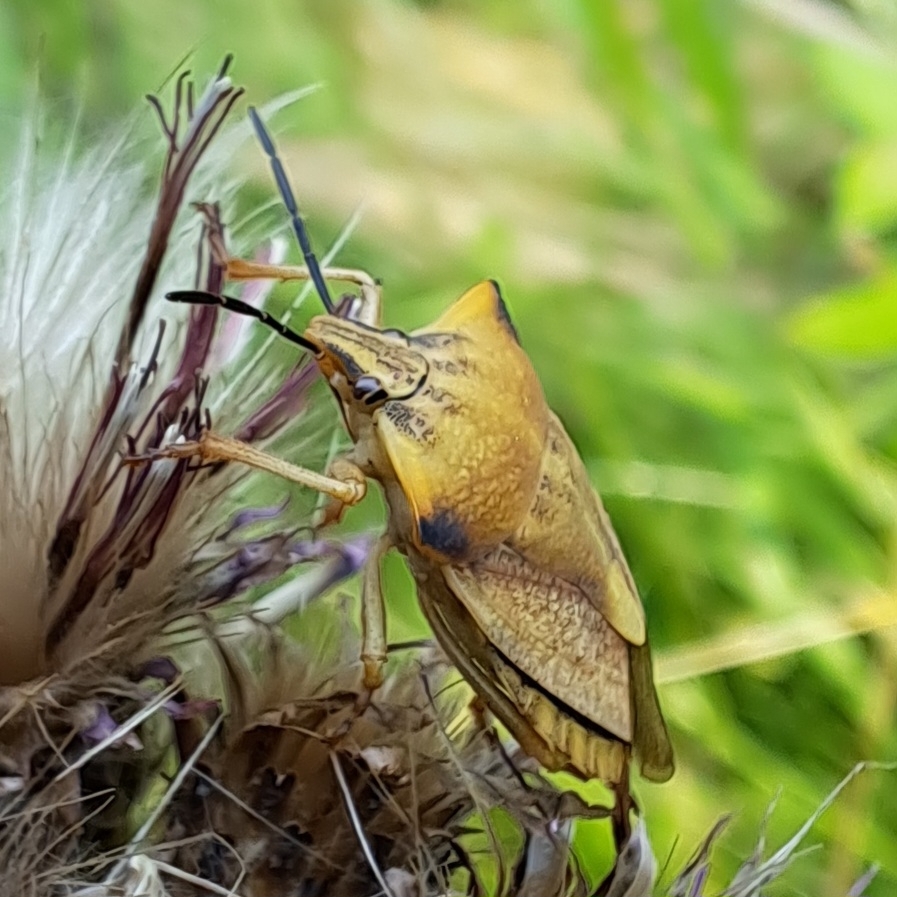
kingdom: Animalia
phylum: Arthropoda
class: Insecta
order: Hemiptera
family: Pentatomidae
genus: Carpocoris
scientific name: Carpocoris fuscispinus
